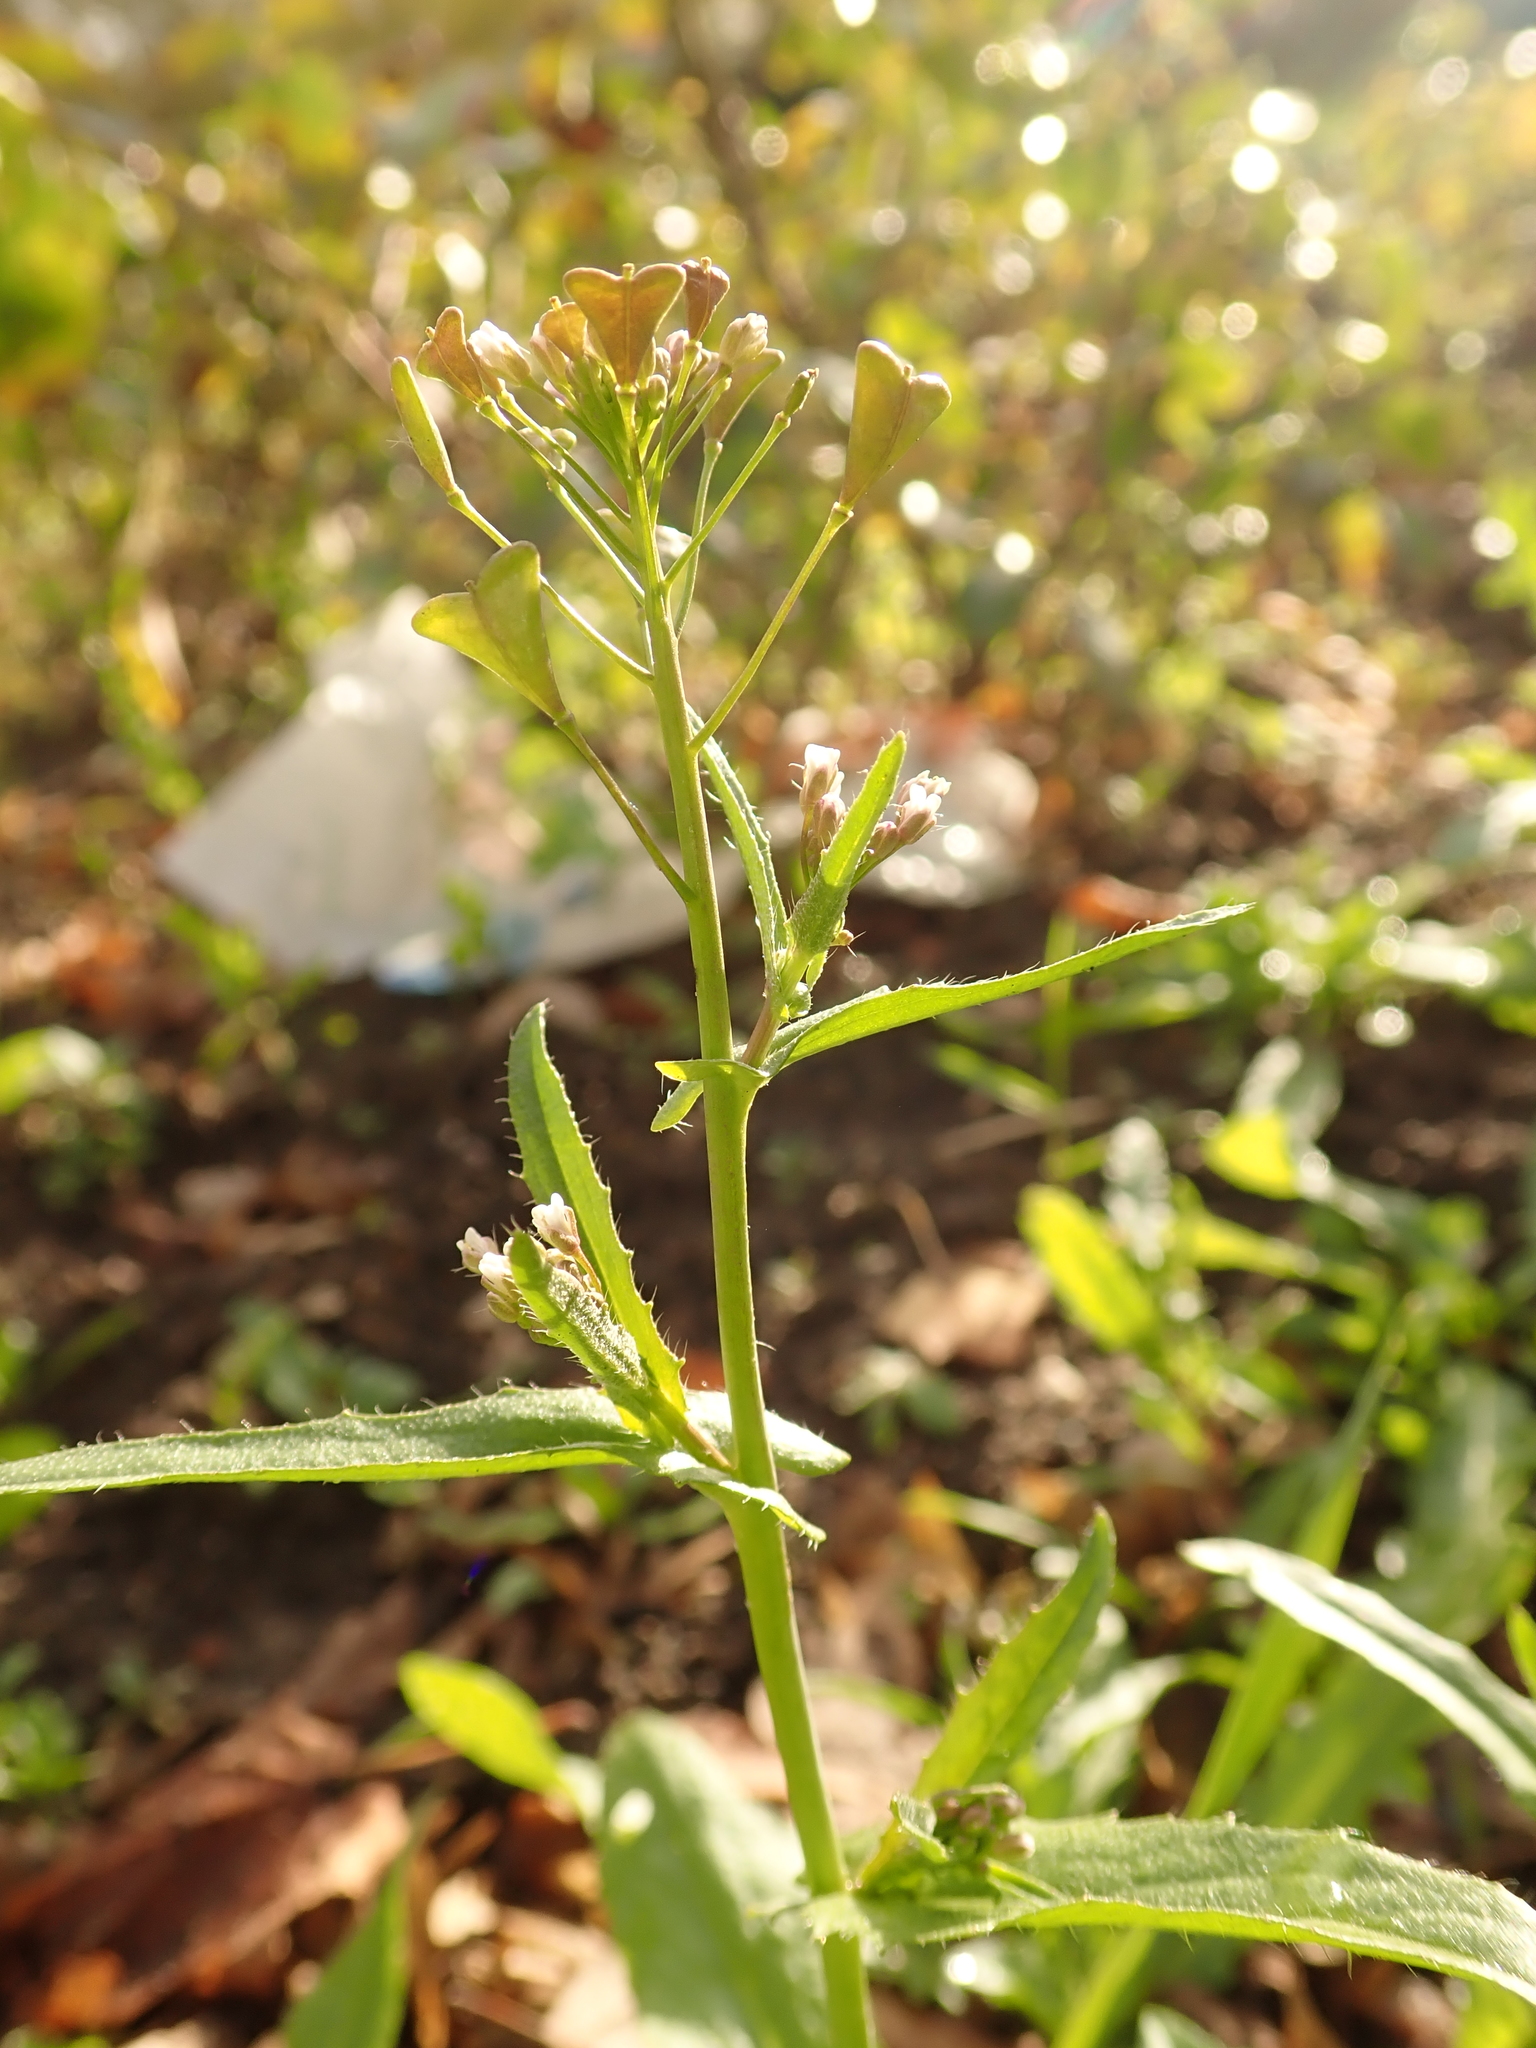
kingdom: Plantae
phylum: Tracheophyta
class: Magnoliopsida
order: Brassicales
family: Brassicaceae
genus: Capsella
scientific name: Capsella bursa-pastoris
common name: Shepherd's purse
